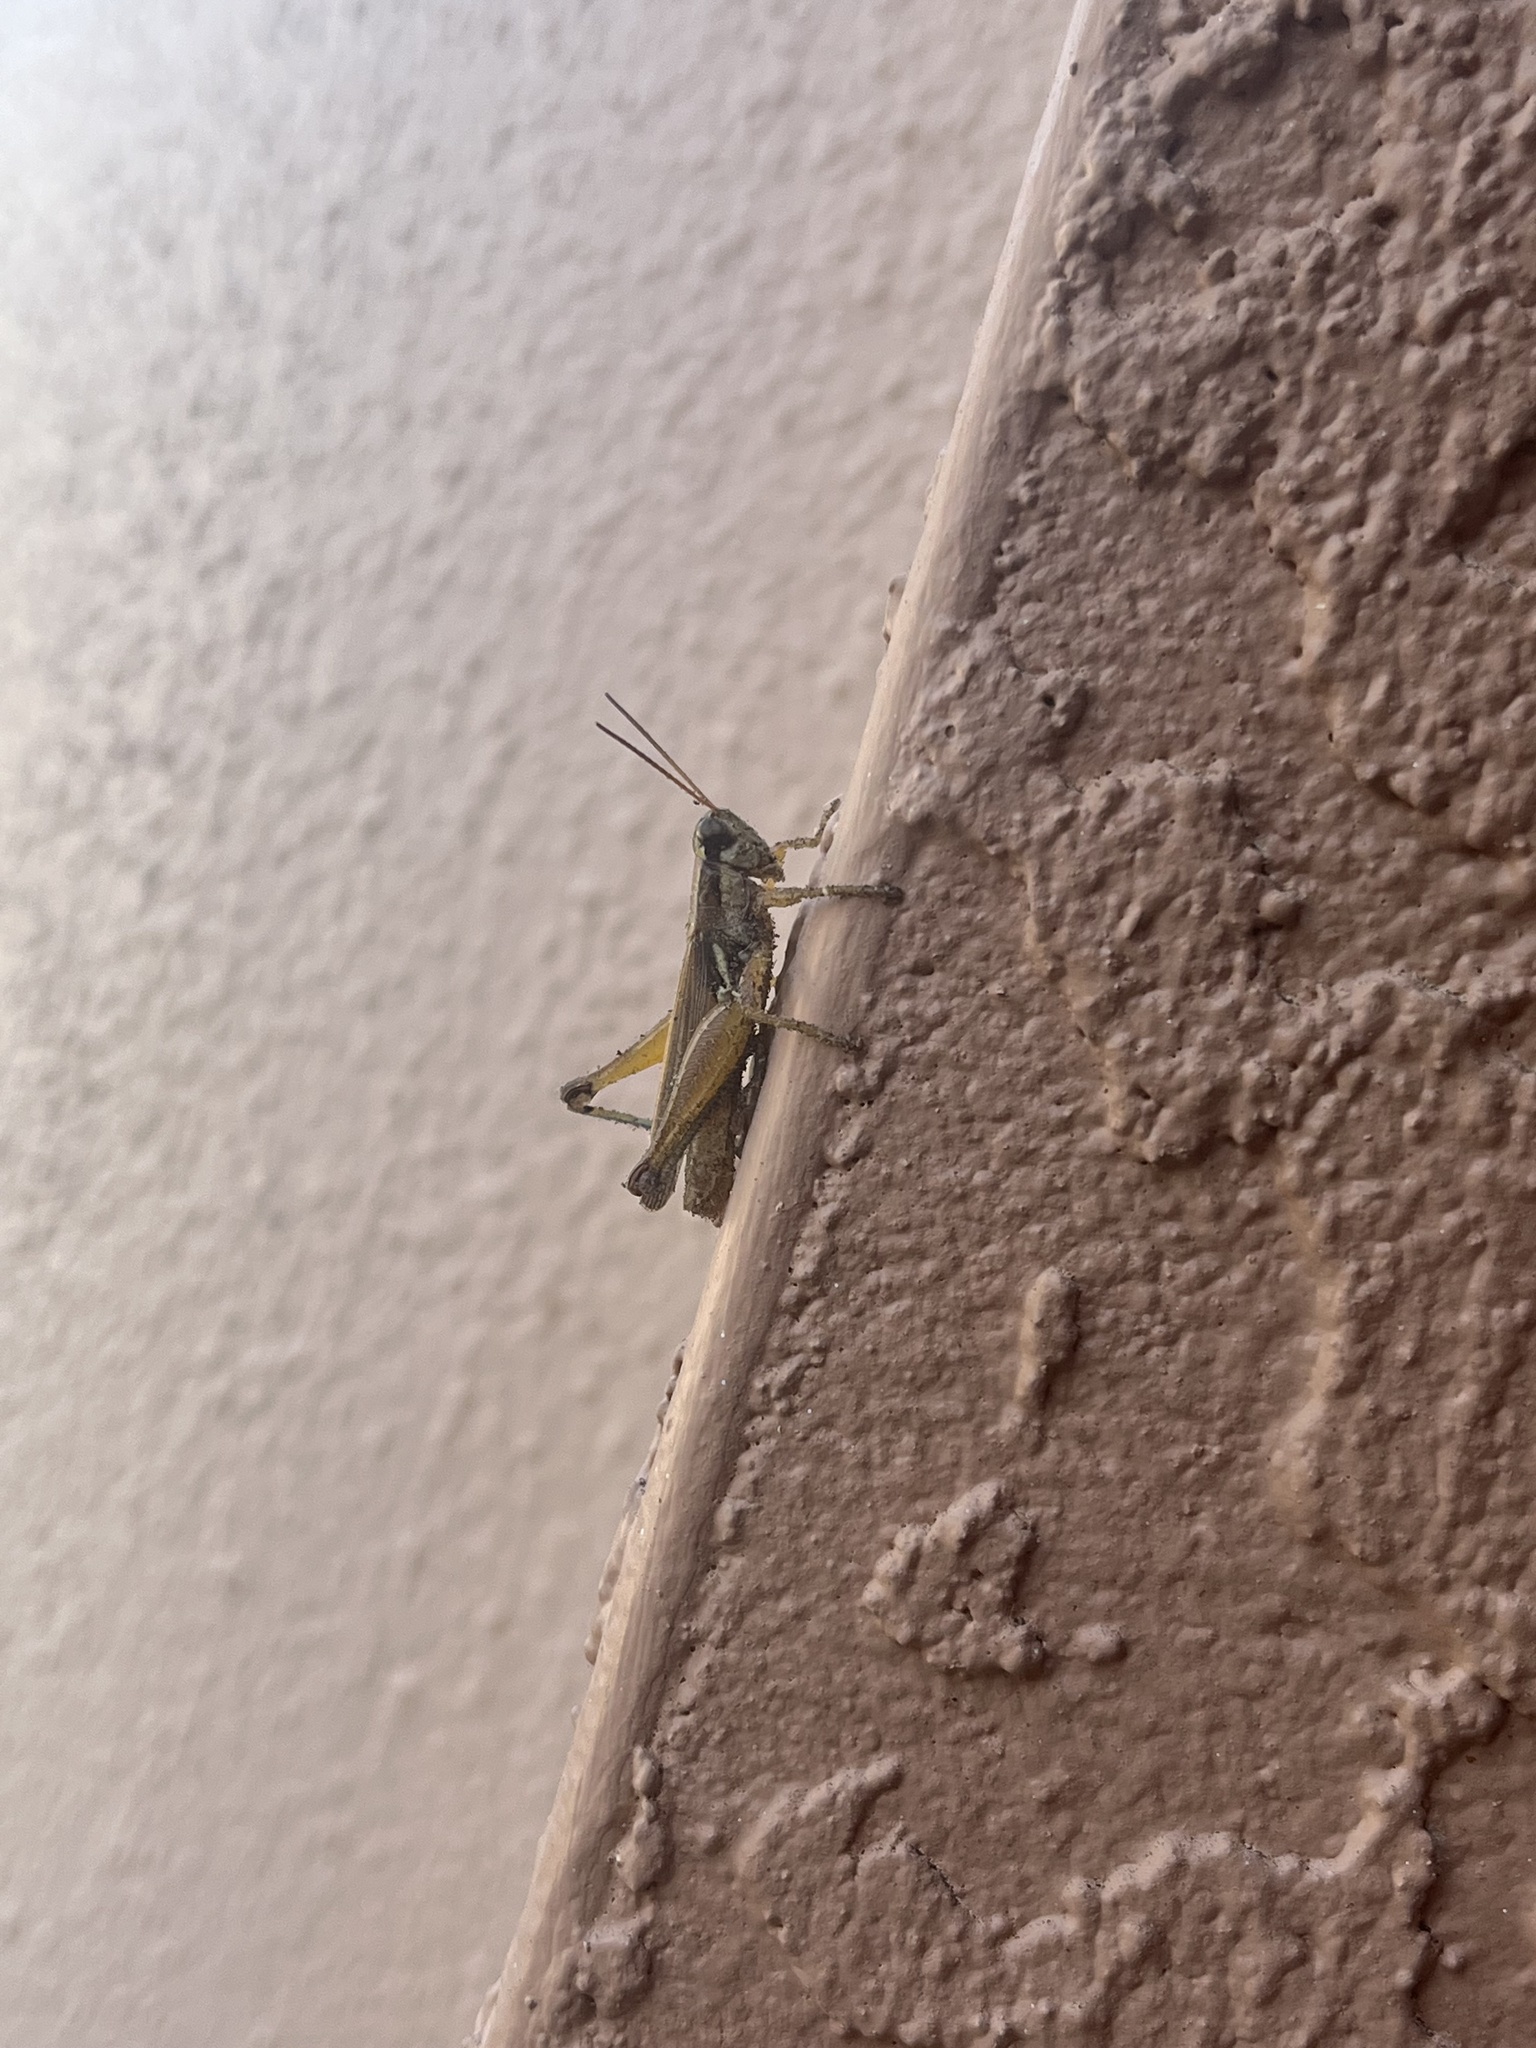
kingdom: Animalia
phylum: Arthropoda
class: Insecta
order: Orthoptera
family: Acrididae
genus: Paroxya
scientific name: Paroxya atlantica
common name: Atlantic grasshopper
